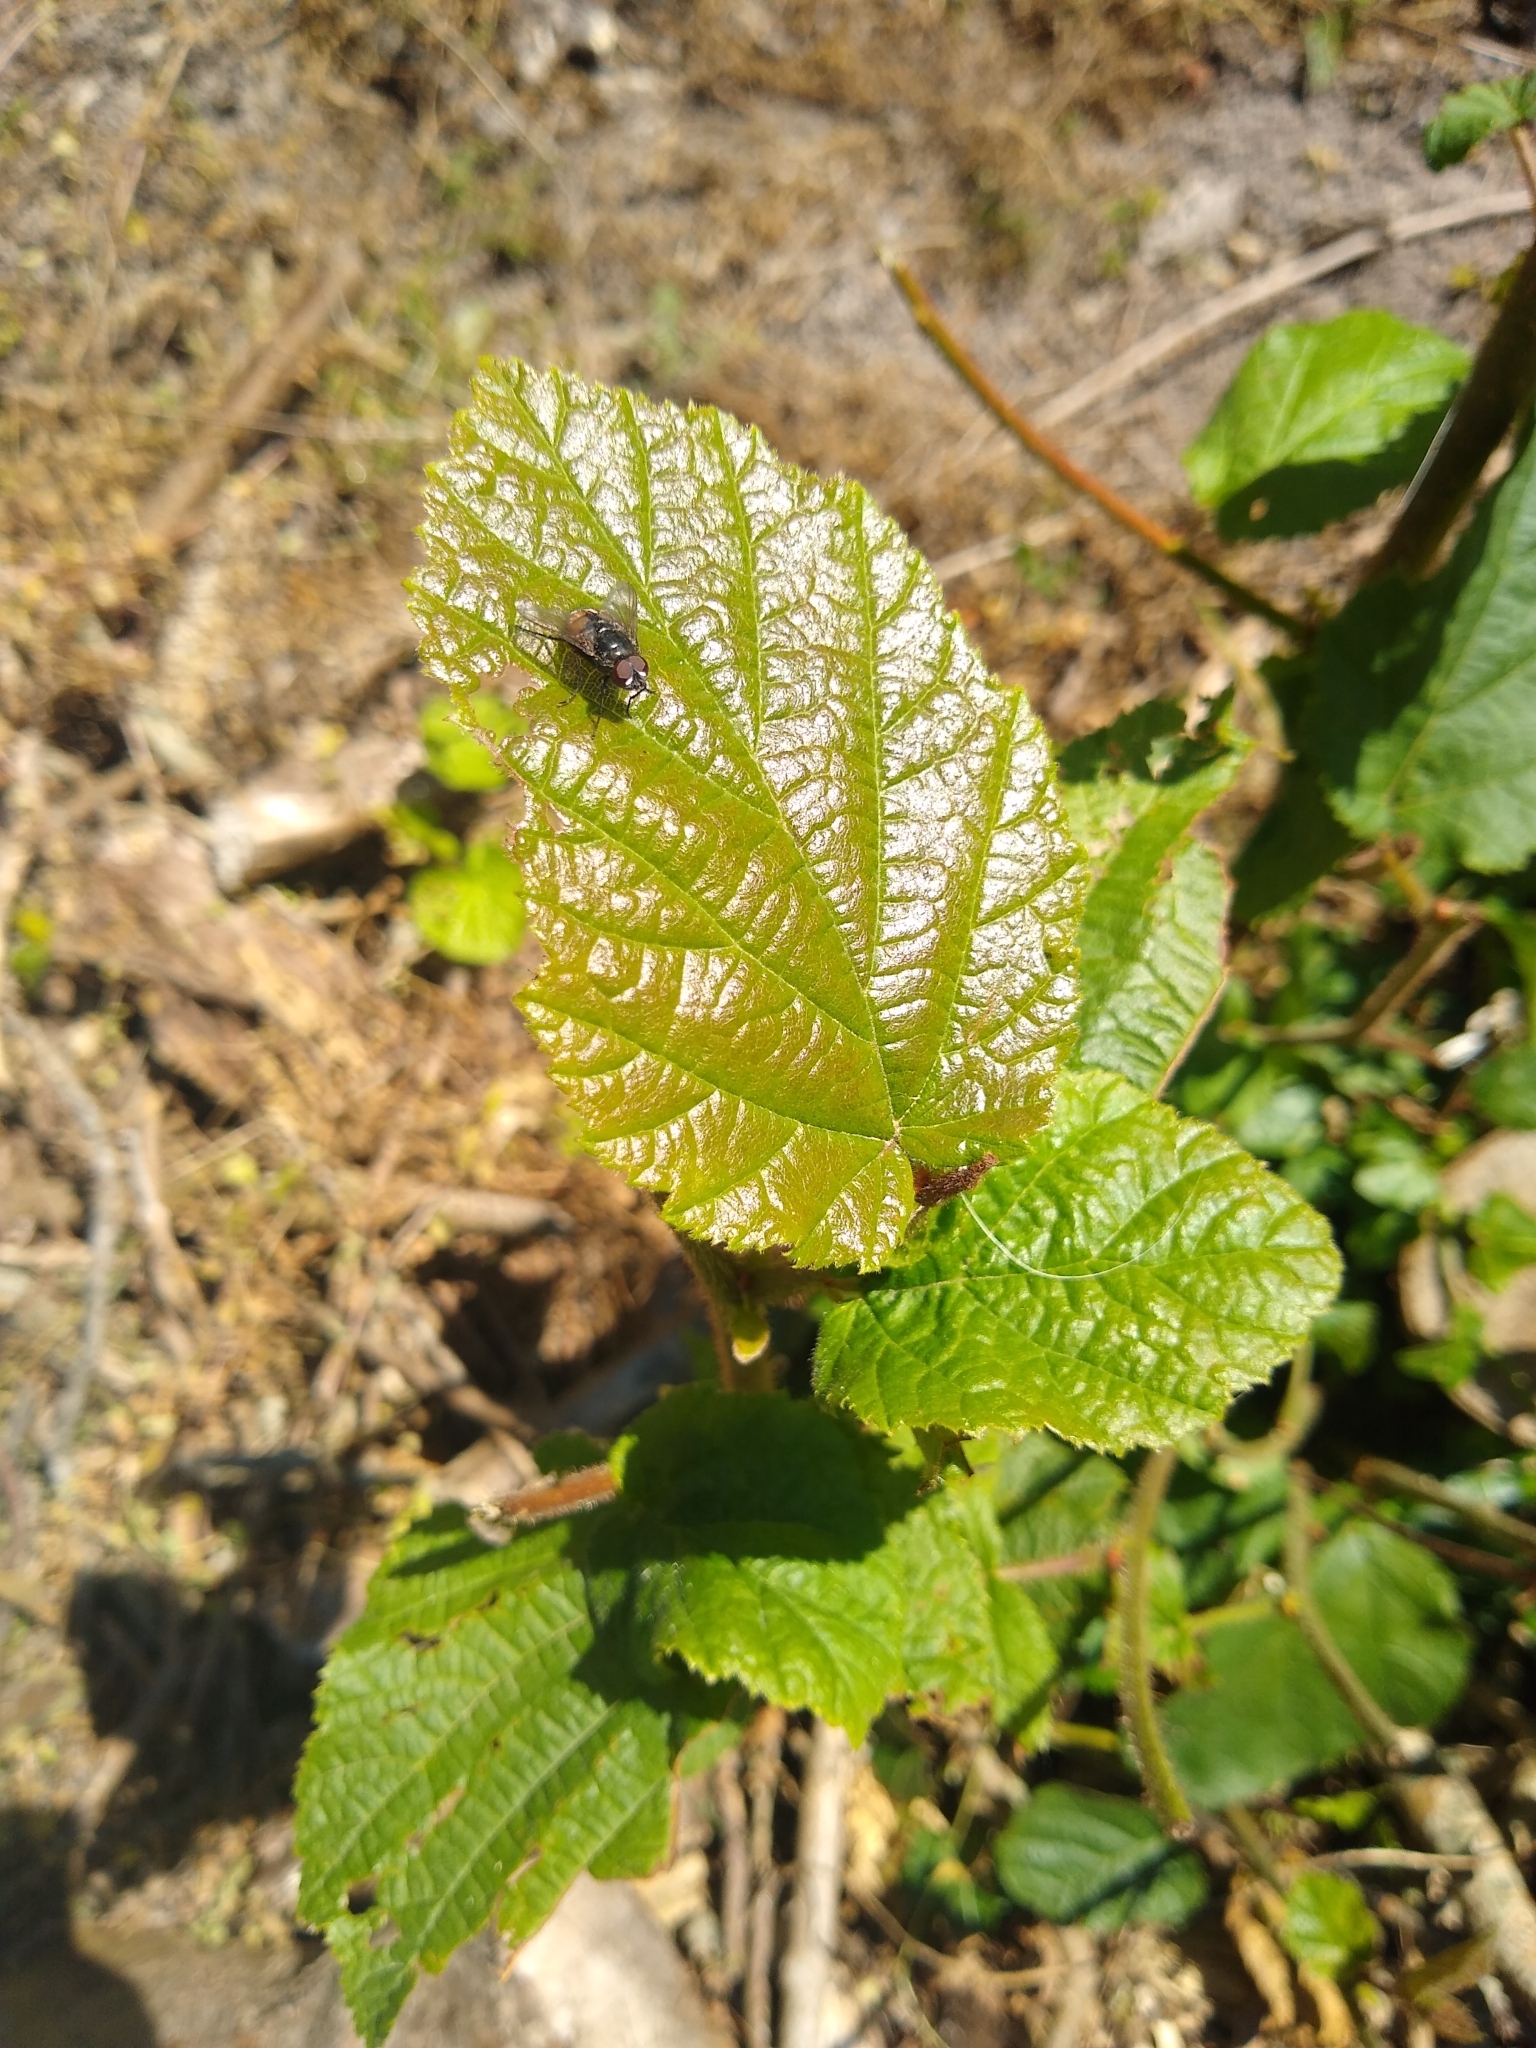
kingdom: Plantae
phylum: Tracheophyta
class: Magnoliopsida
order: Fagales
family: Betulaceae
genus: Corylus
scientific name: Corylus avellana
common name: European hazel
